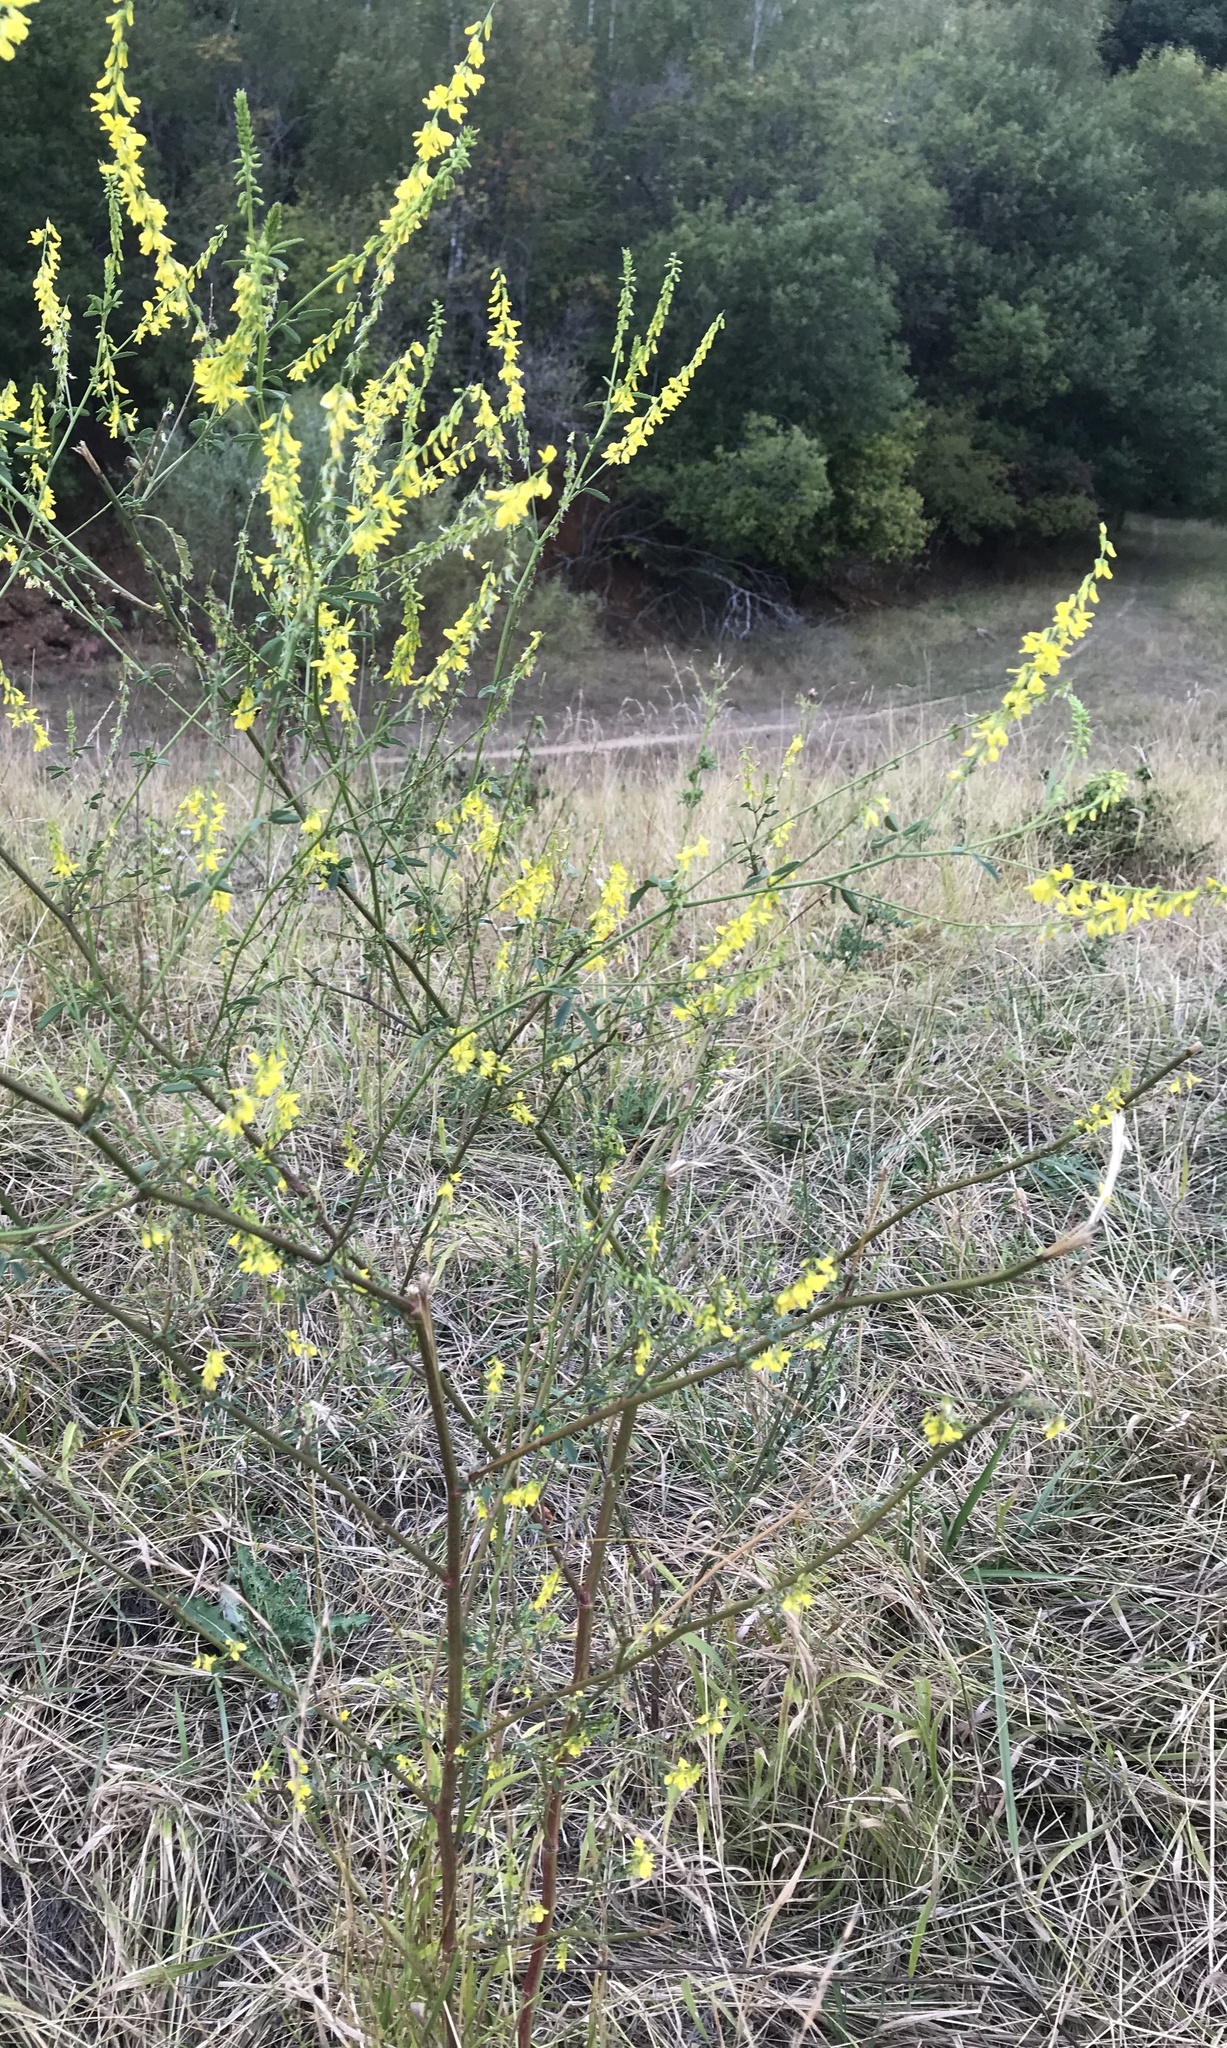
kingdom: Plantae
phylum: Tracheophyta
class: Magnoliopsida
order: Fabales
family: Fabaceae
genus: Melilotus
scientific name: Melilotus officinalis
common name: Sweetclover
